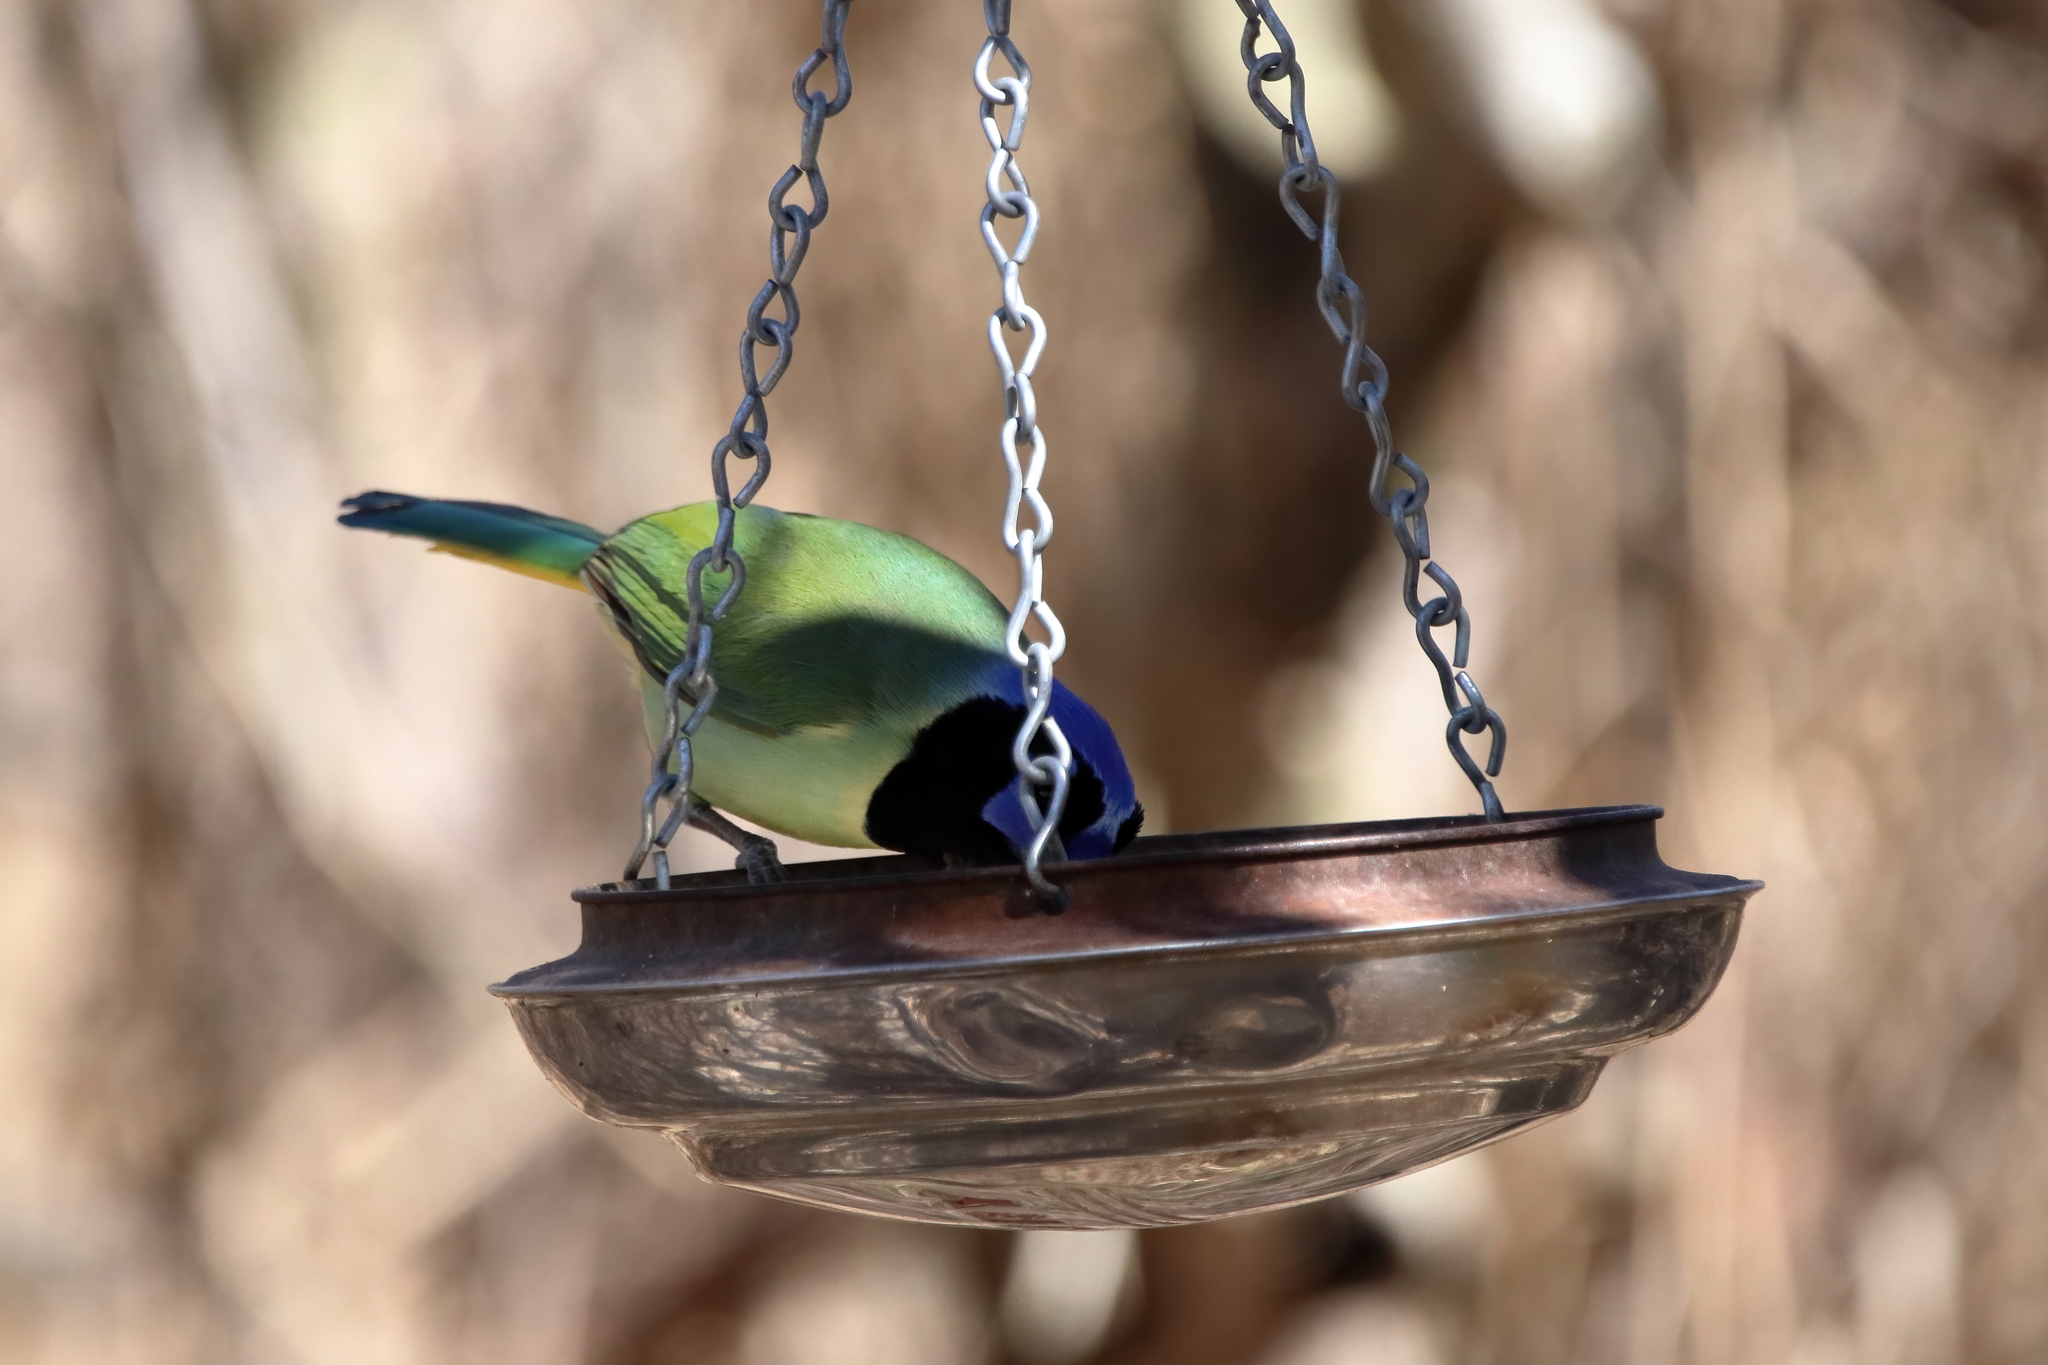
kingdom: Animalia
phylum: Chordata
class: Aves
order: Passeriformes
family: Corvidae
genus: Cyanocorax
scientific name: Cyanocorax yncas
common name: Green jay
